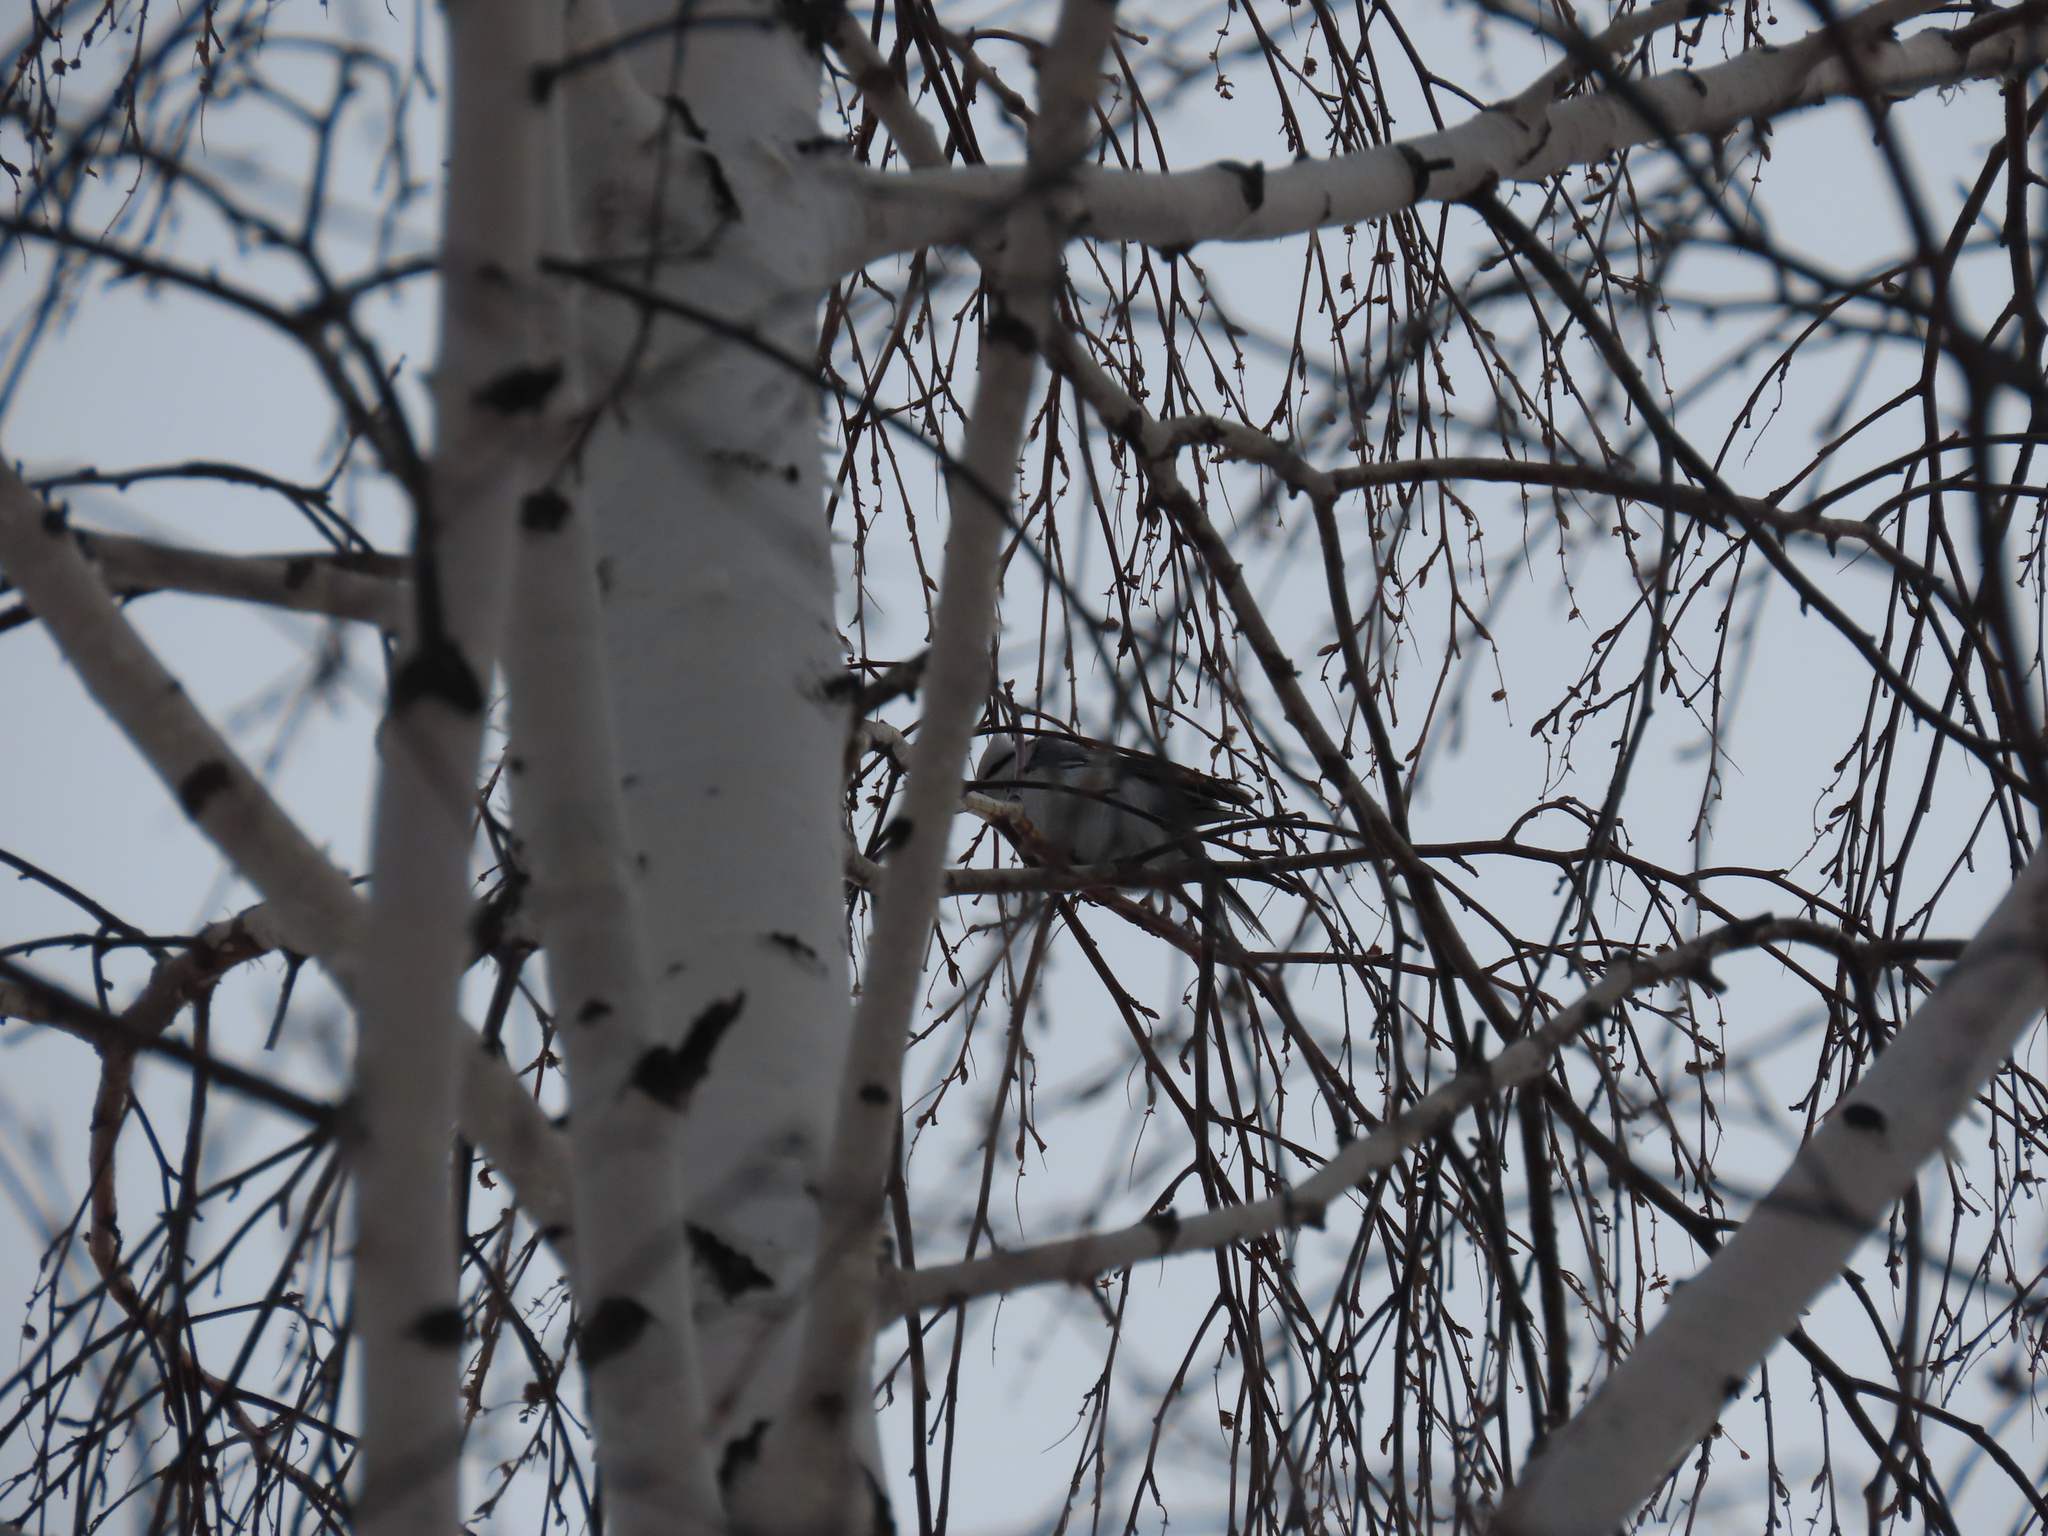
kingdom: Animalia
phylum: Chordata
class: Aves
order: Passeriformes
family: Paridae
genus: Cyanistes
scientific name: Cyanistes cyanus
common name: Azure tit
